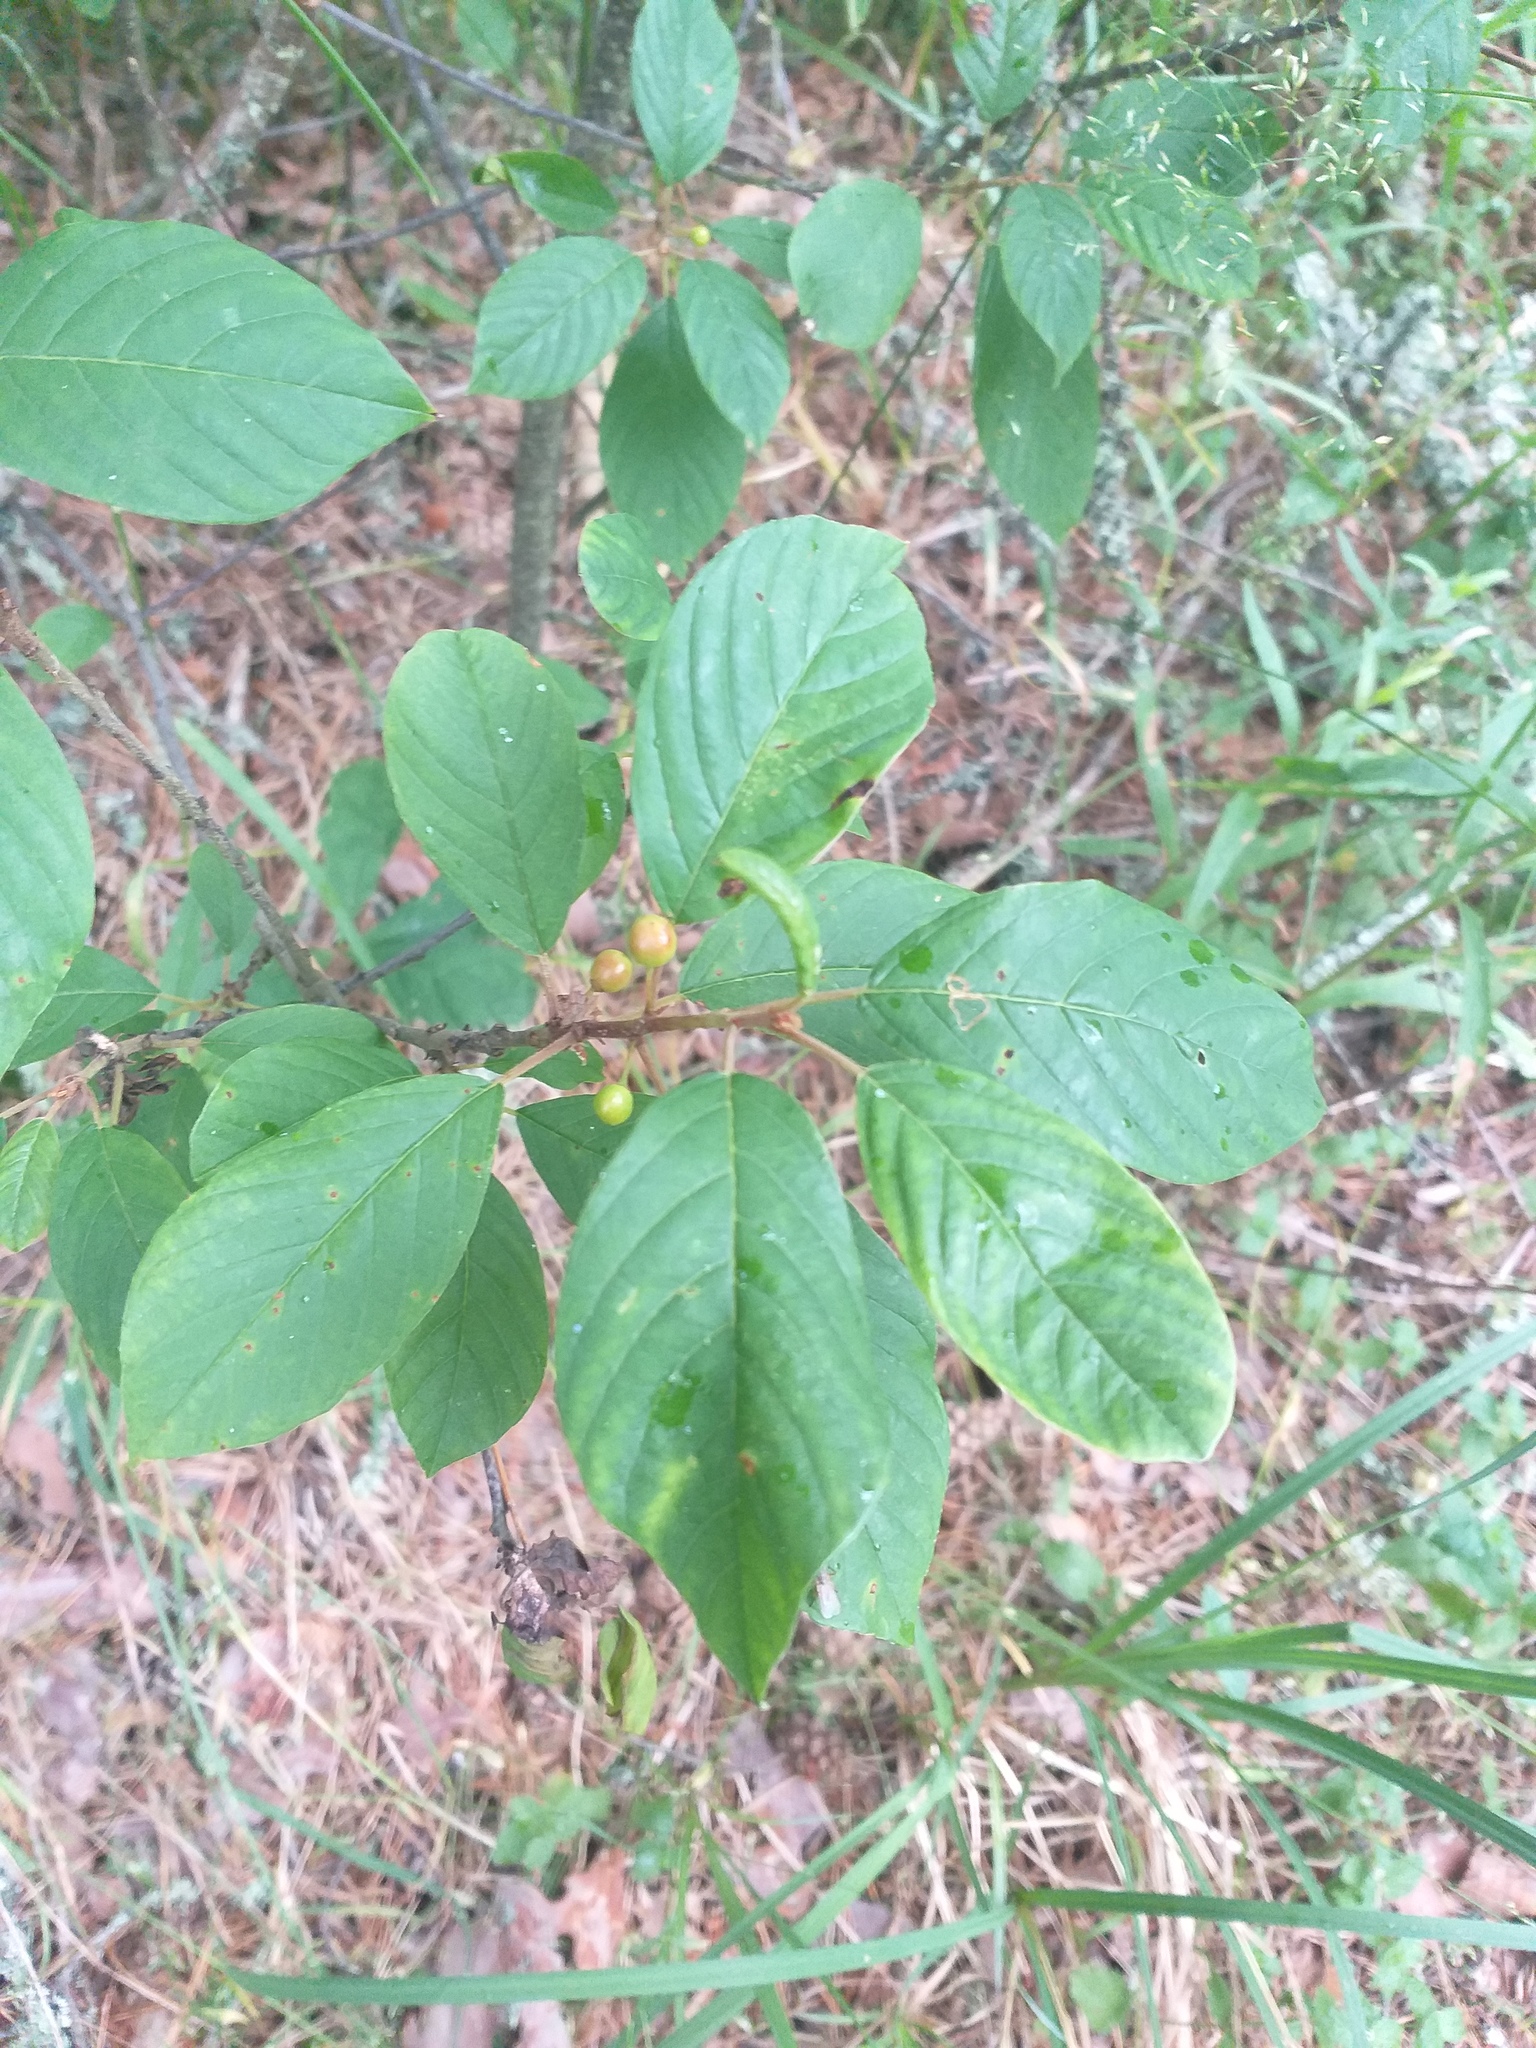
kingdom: Plantae
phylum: Tracheophyta
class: Magnoliopsida
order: Rosales
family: Rhamnaceae
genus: Frangula
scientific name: Frangula alnus
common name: Alder buckthorn
